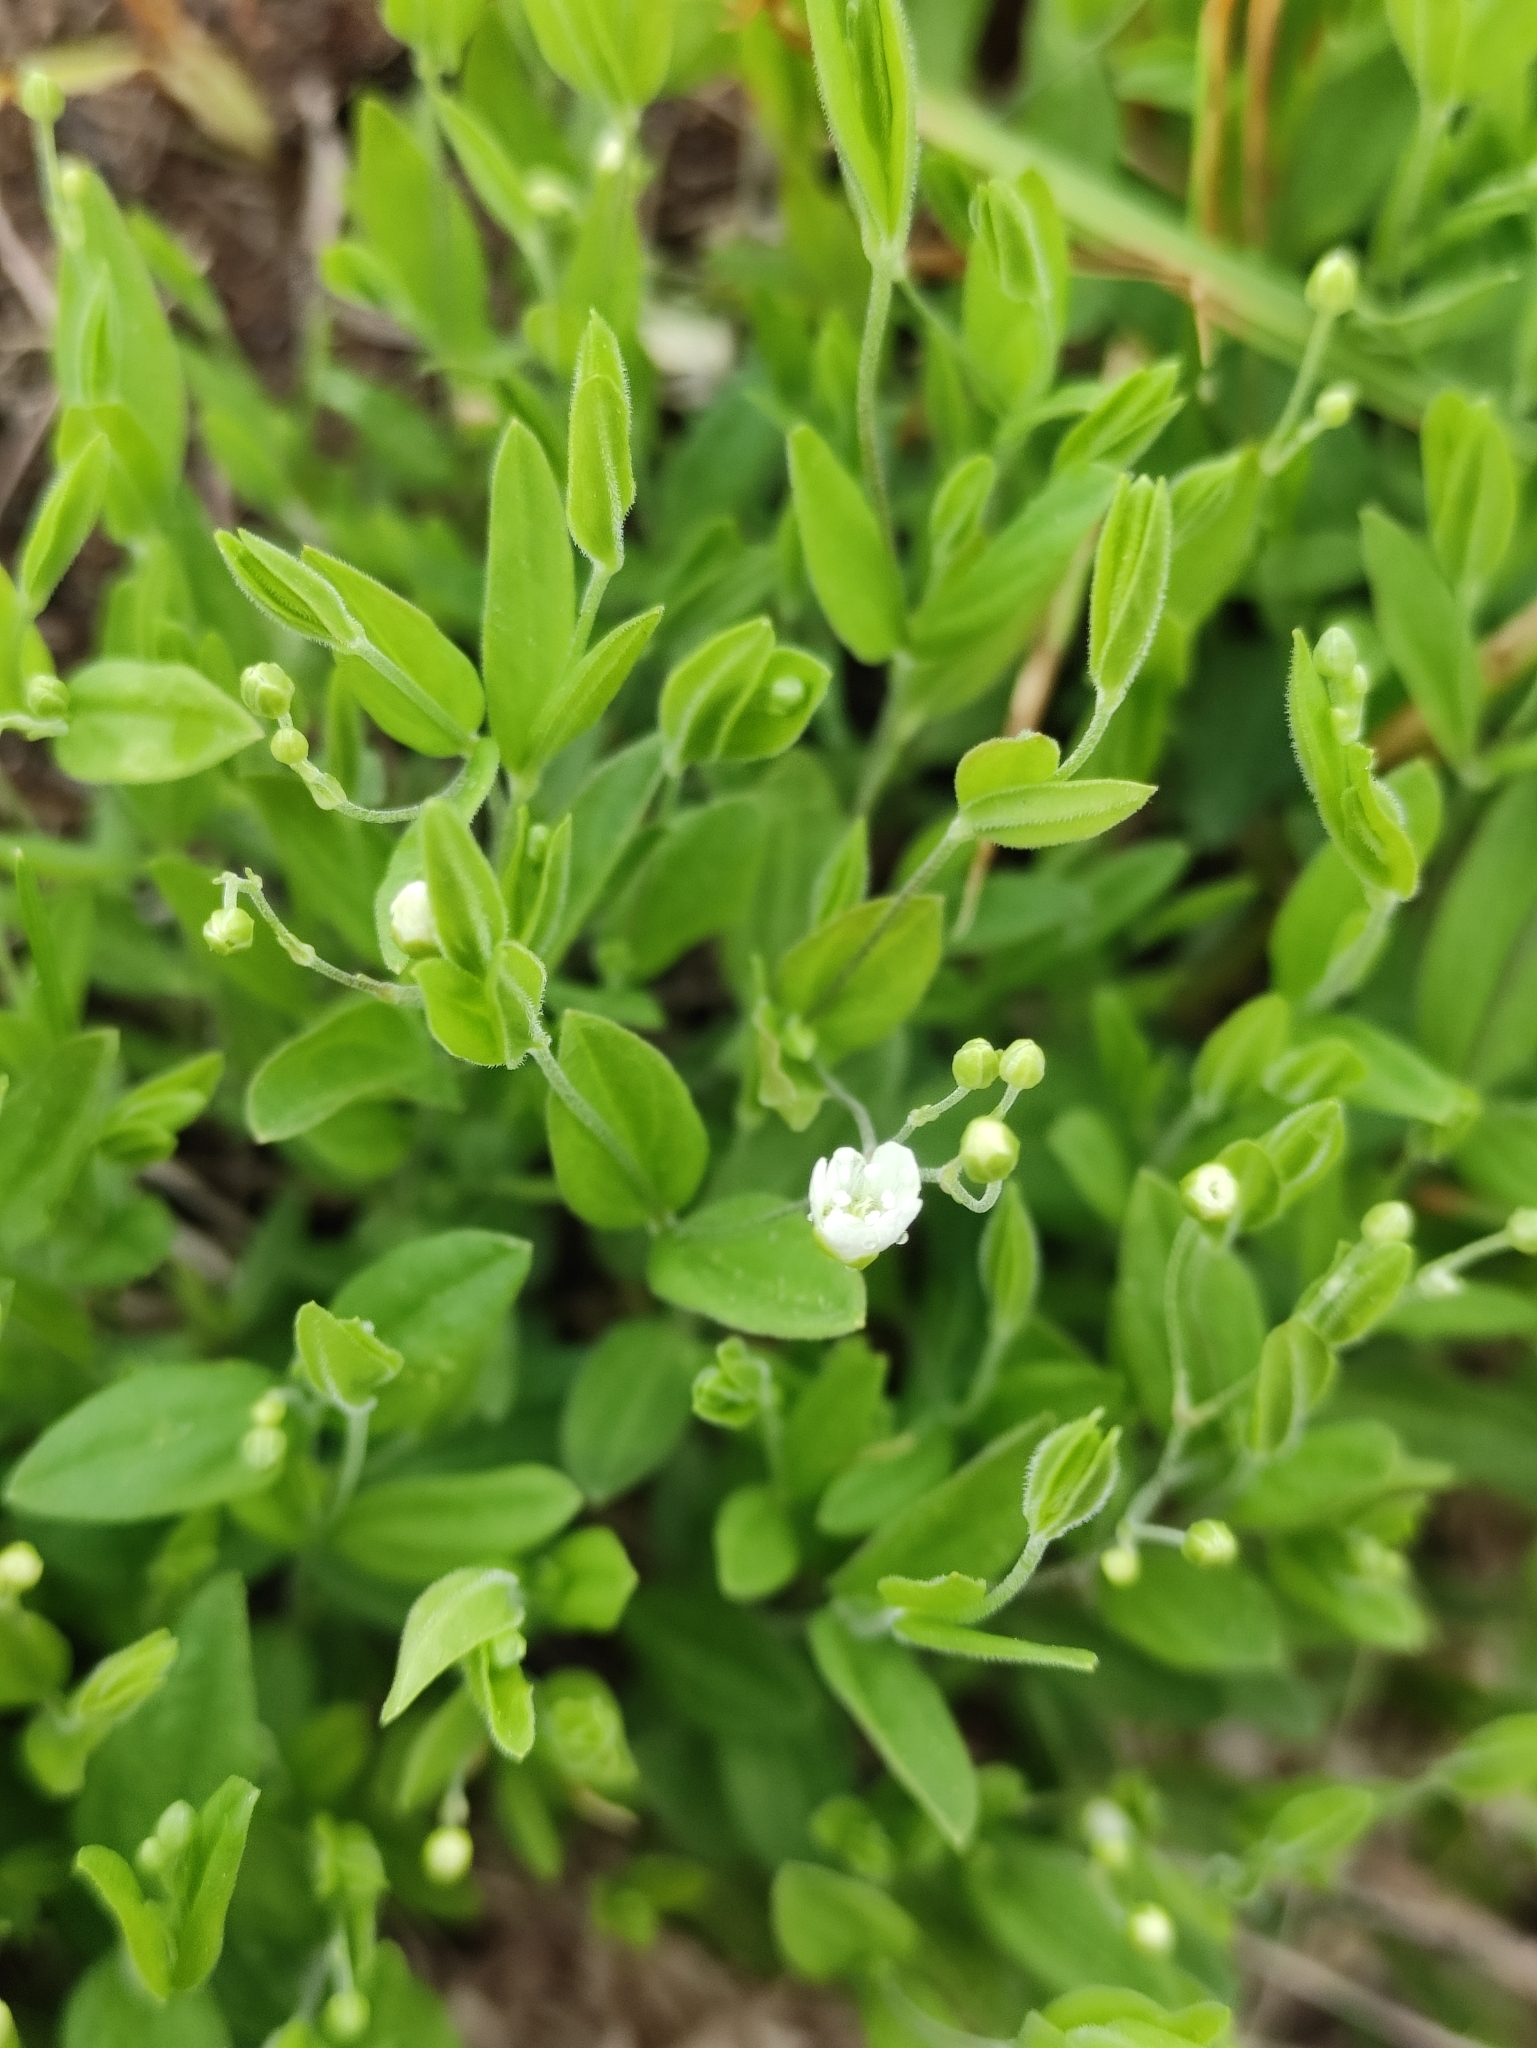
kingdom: Plantae
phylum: Tracheophyta
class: Magnoliopsida
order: Caryophyllales
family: Caryophyllaceae
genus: Moehringia
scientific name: Moehringia lateriflora
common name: Blunt-leaved sandwort
